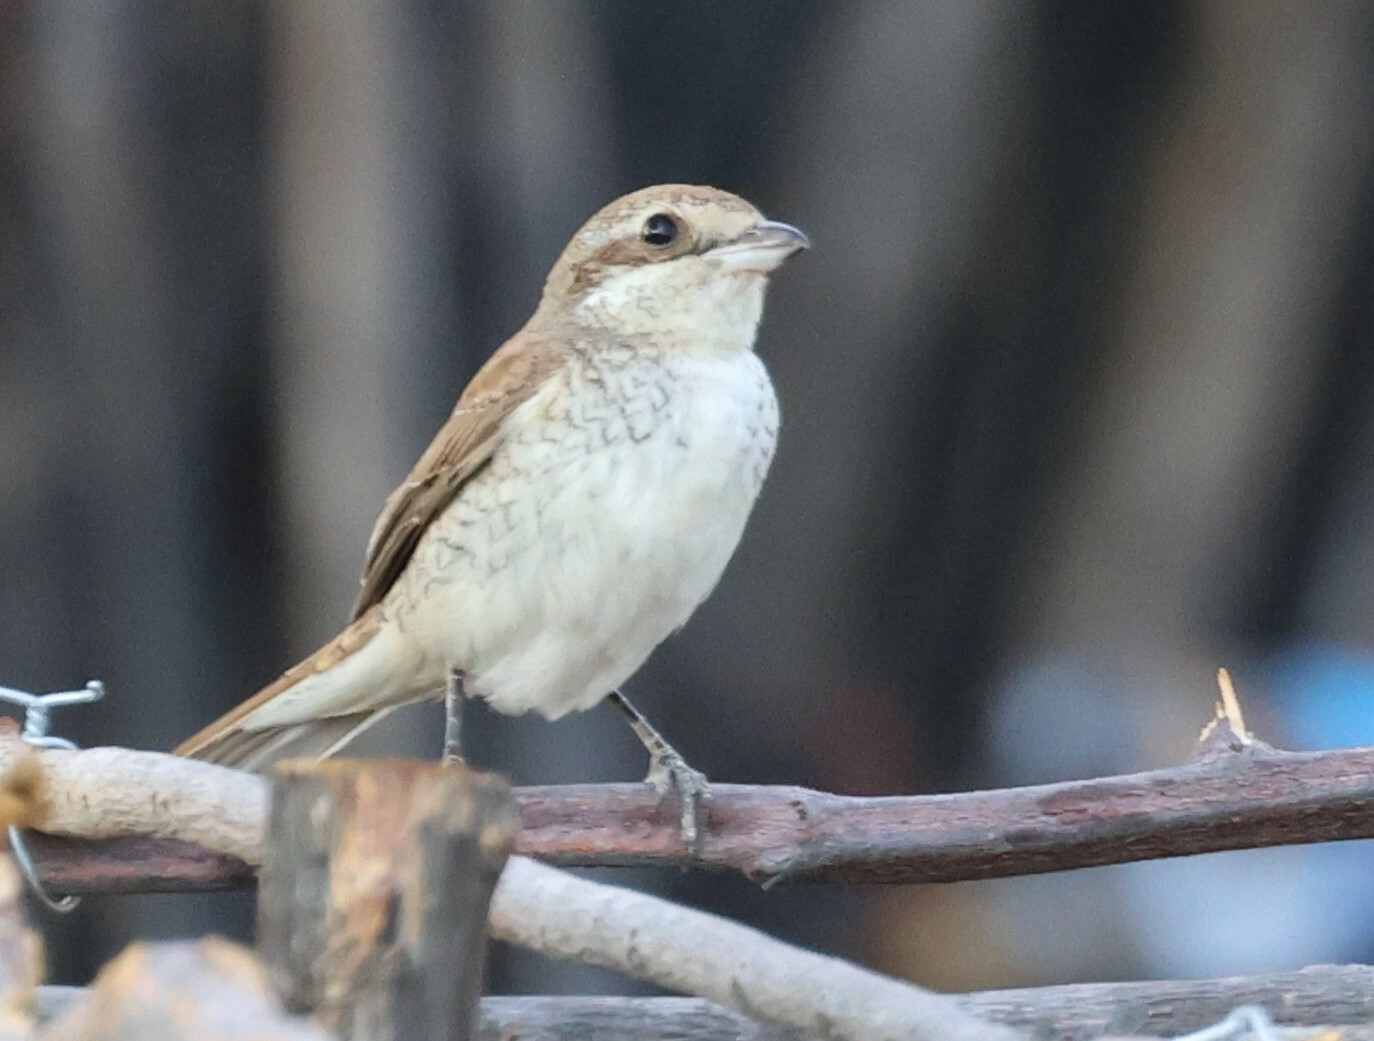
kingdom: Animalia
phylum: Chordata
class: Aves
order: Passeriformes
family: Laniidae
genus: Lanius
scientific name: Lanius collurio
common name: Red-backed shrike
